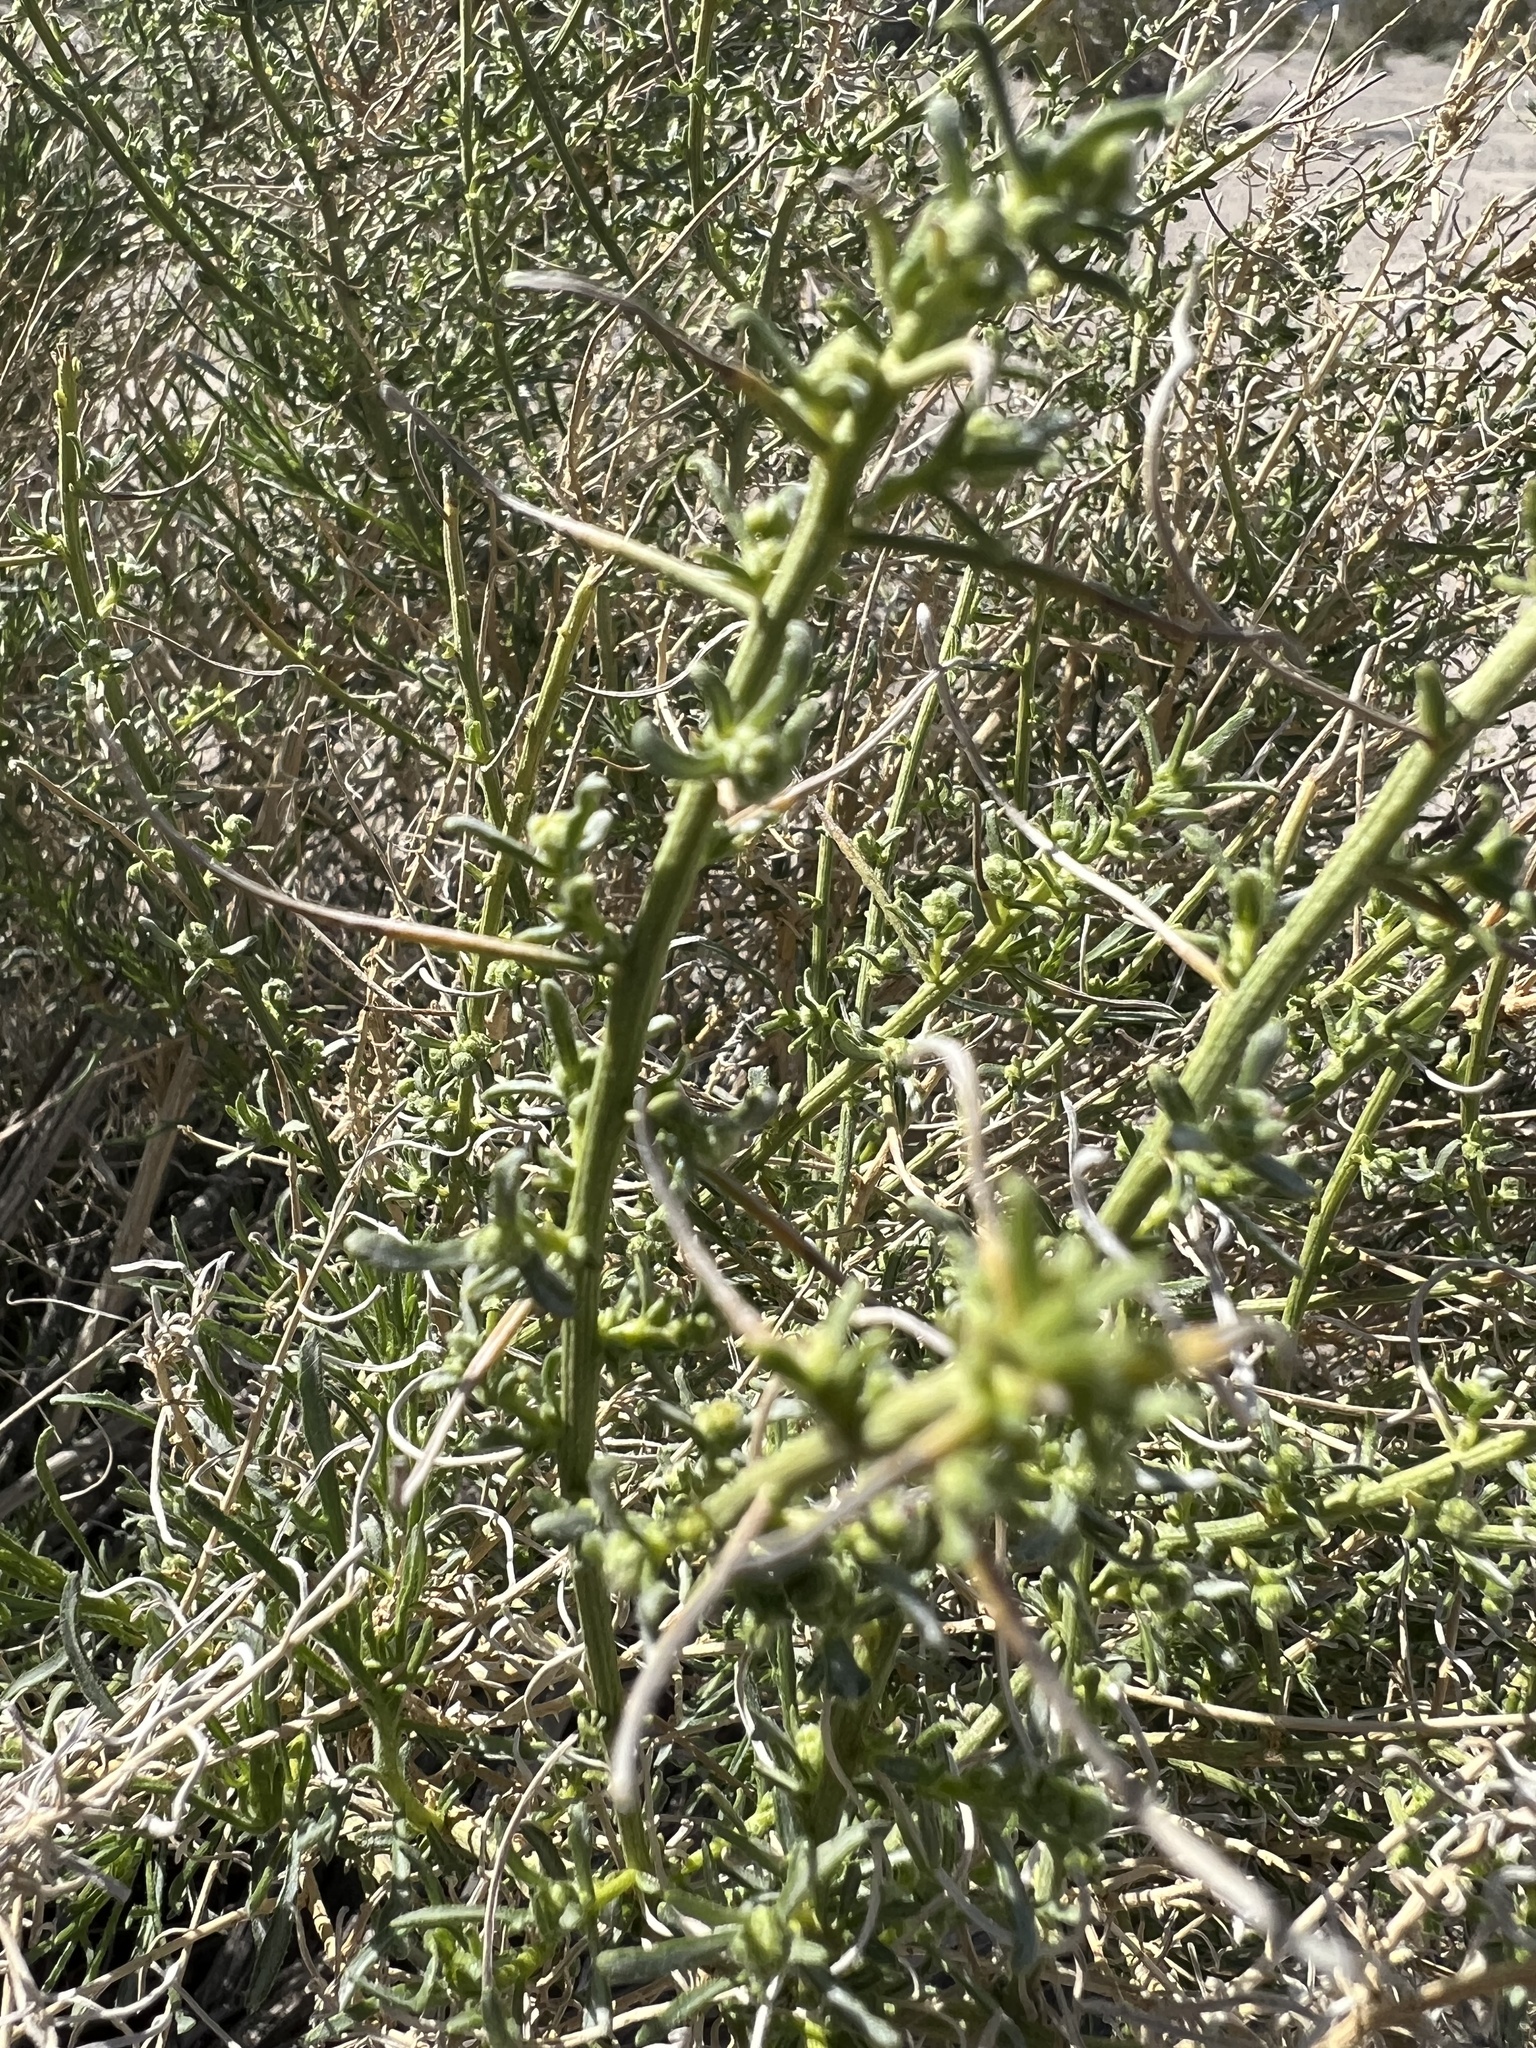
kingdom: Plantae
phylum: Tracheophyta
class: Magnoliopsida
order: Asterales
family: Asteraceae
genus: Ambrosia
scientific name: Ambrosia salsola
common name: Burrobrush
